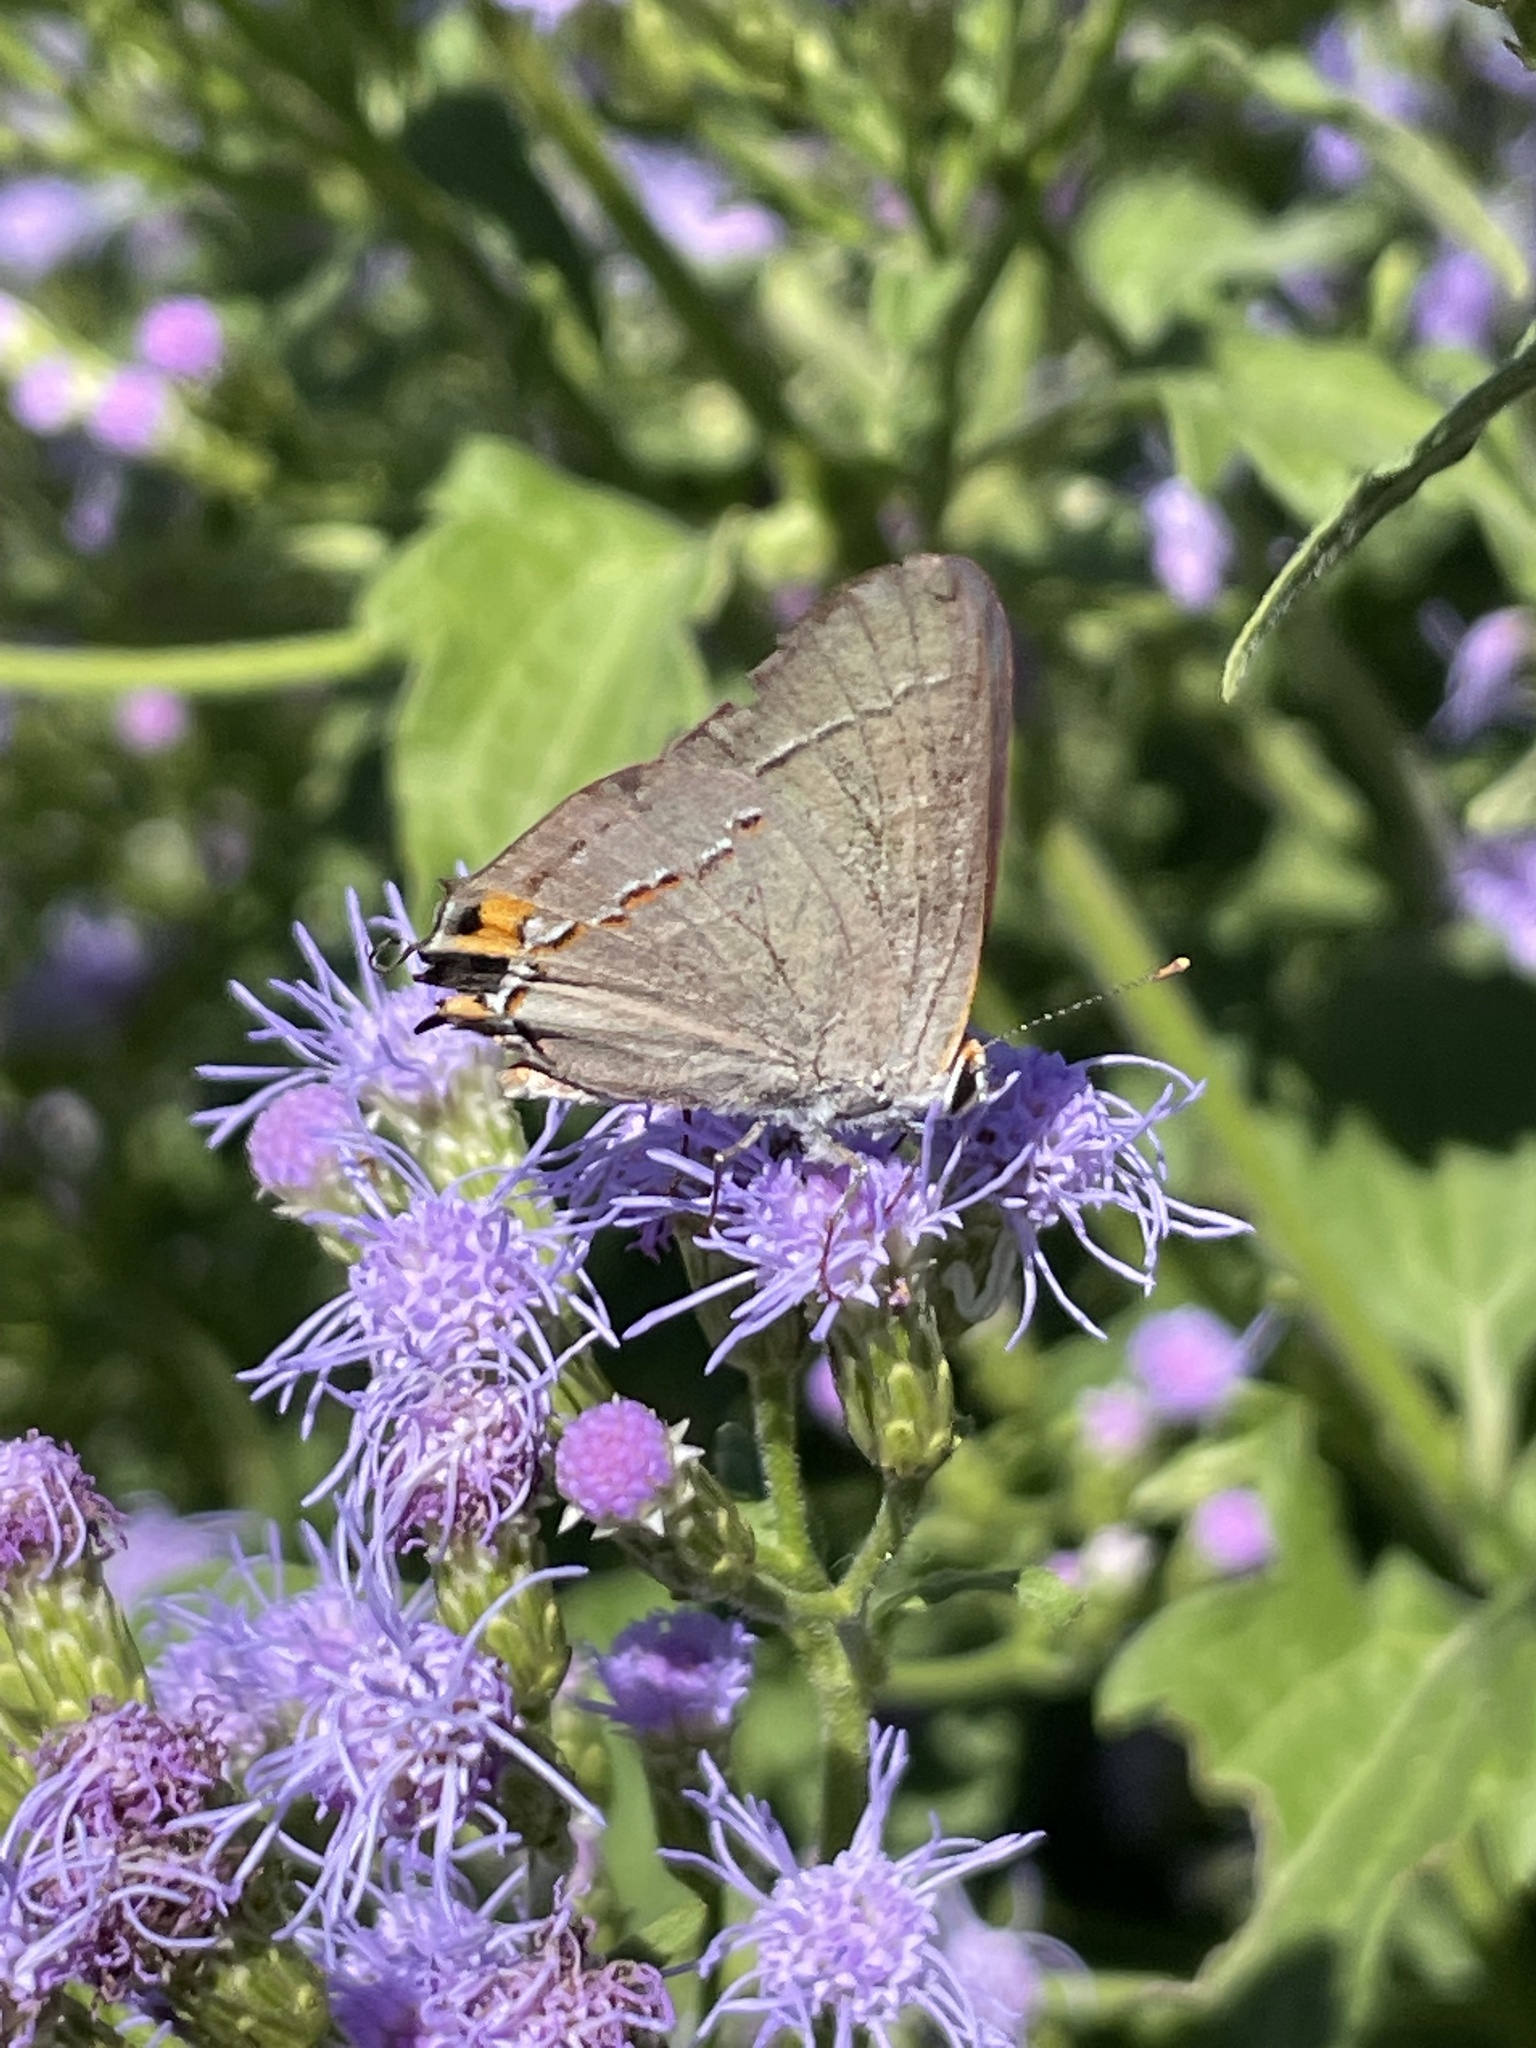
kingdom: Animalia
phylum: Arthropoda
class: Insecta
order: Lepidoptera
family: Lycaenidae
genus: Strymon
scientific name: Strymon melinus
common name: Gray hairstreak
